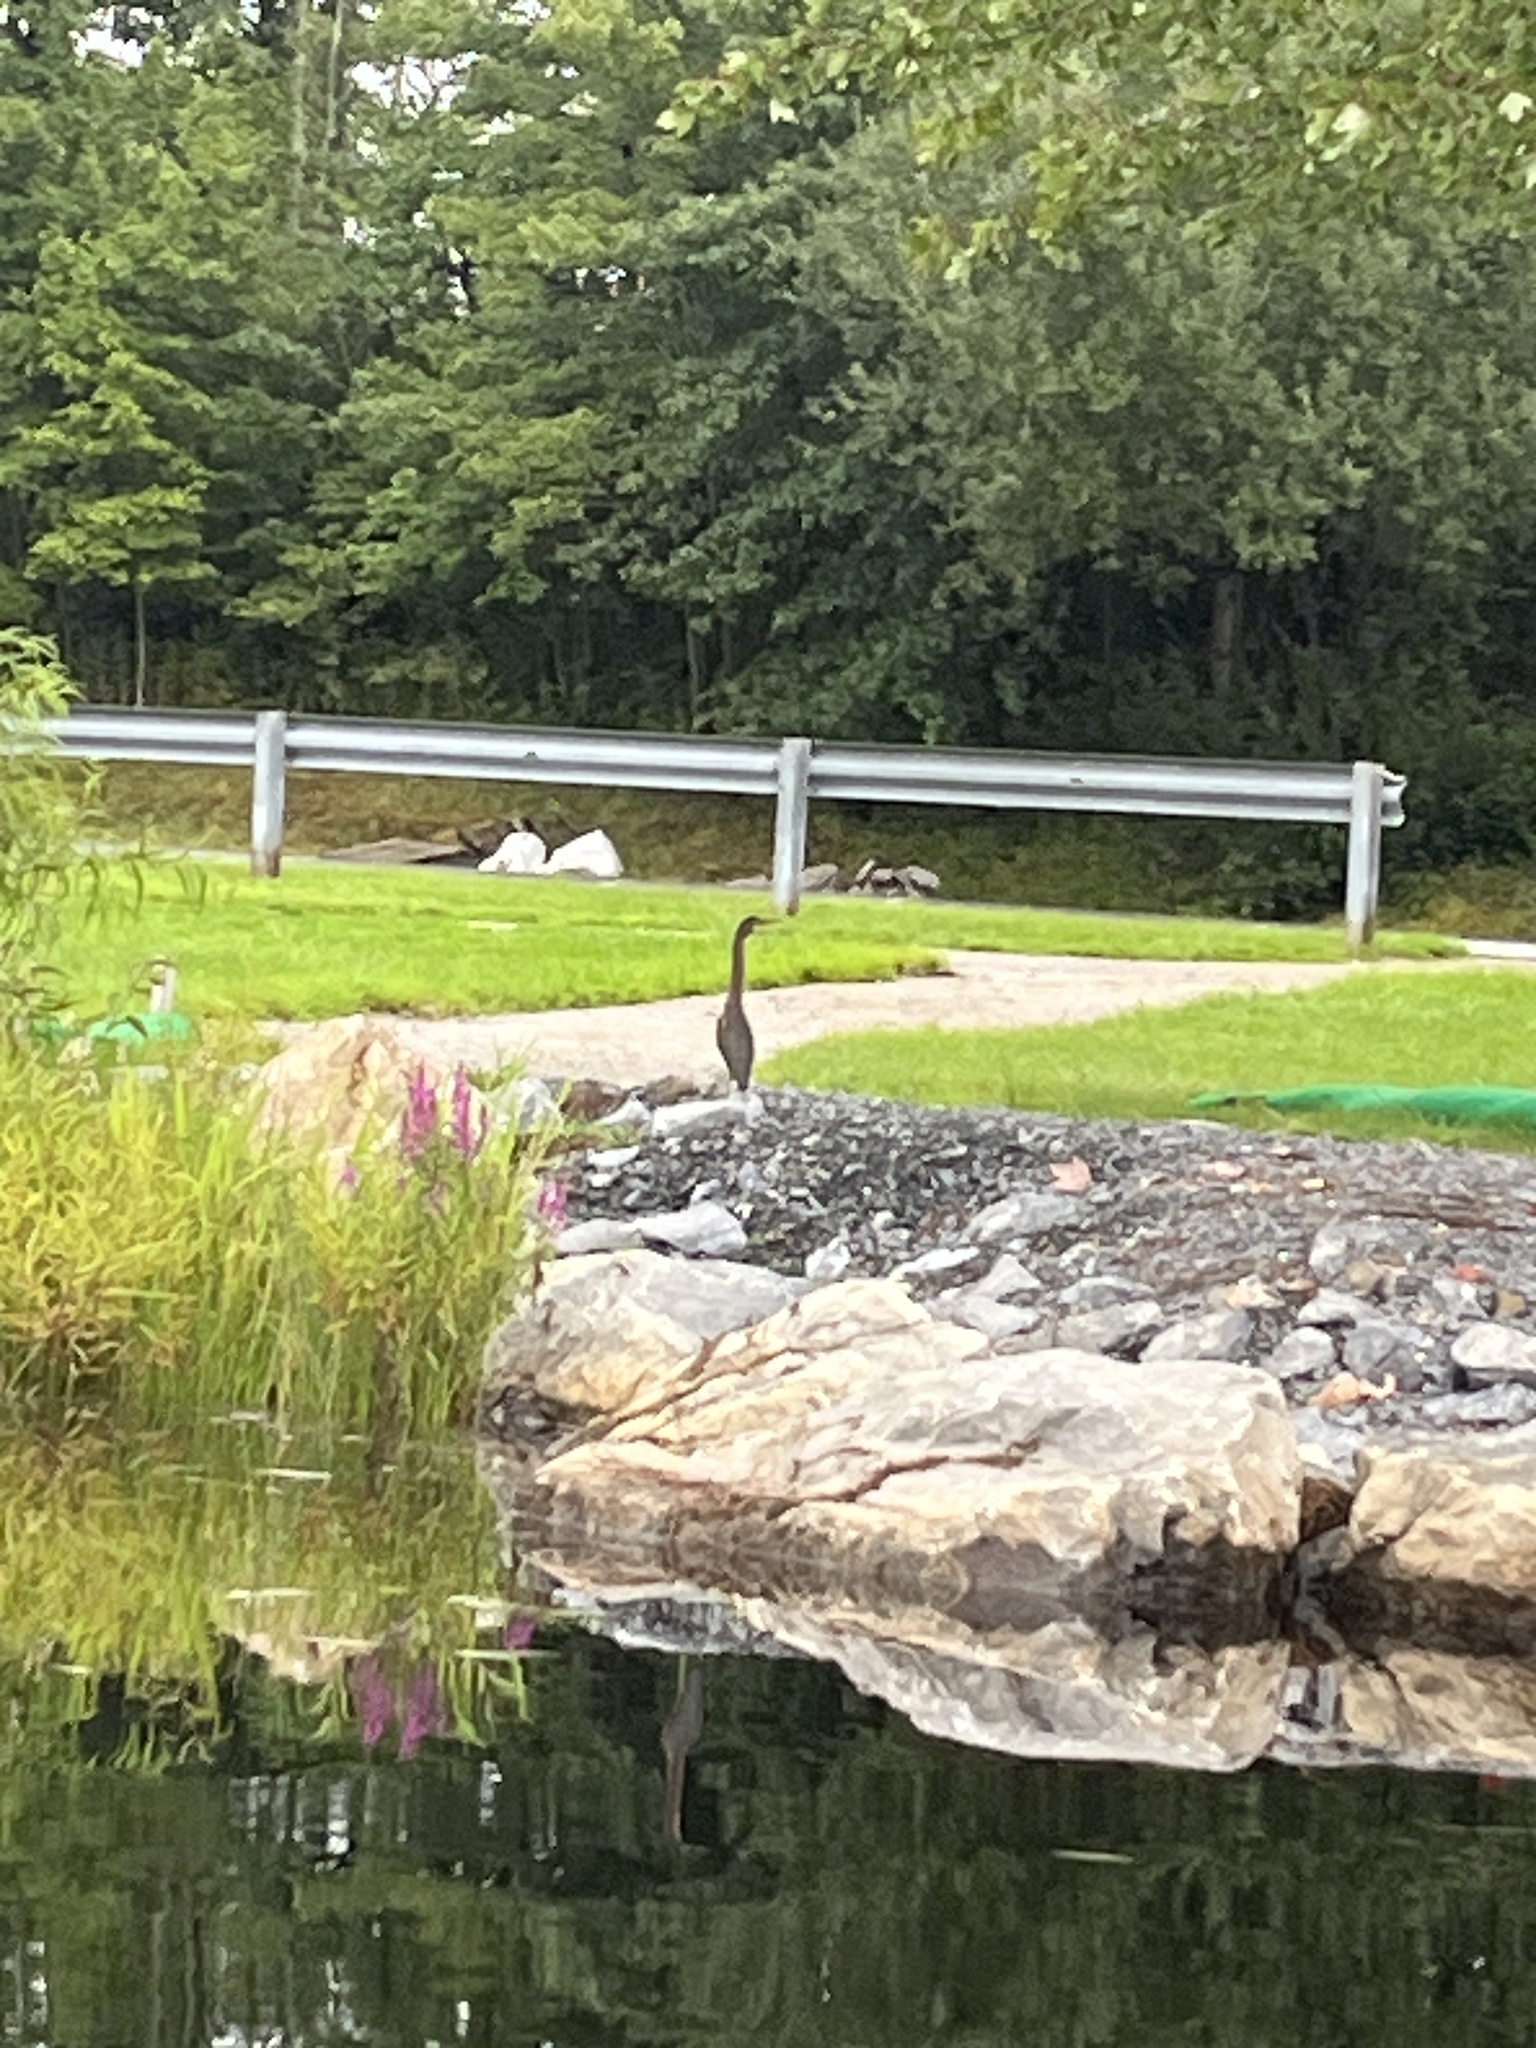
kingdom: Animalia
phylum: Chordata
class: Aves
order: Pelecaniformes
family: Ardeidae
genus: Butorides
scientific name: Butorides virescens
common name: Green heron
